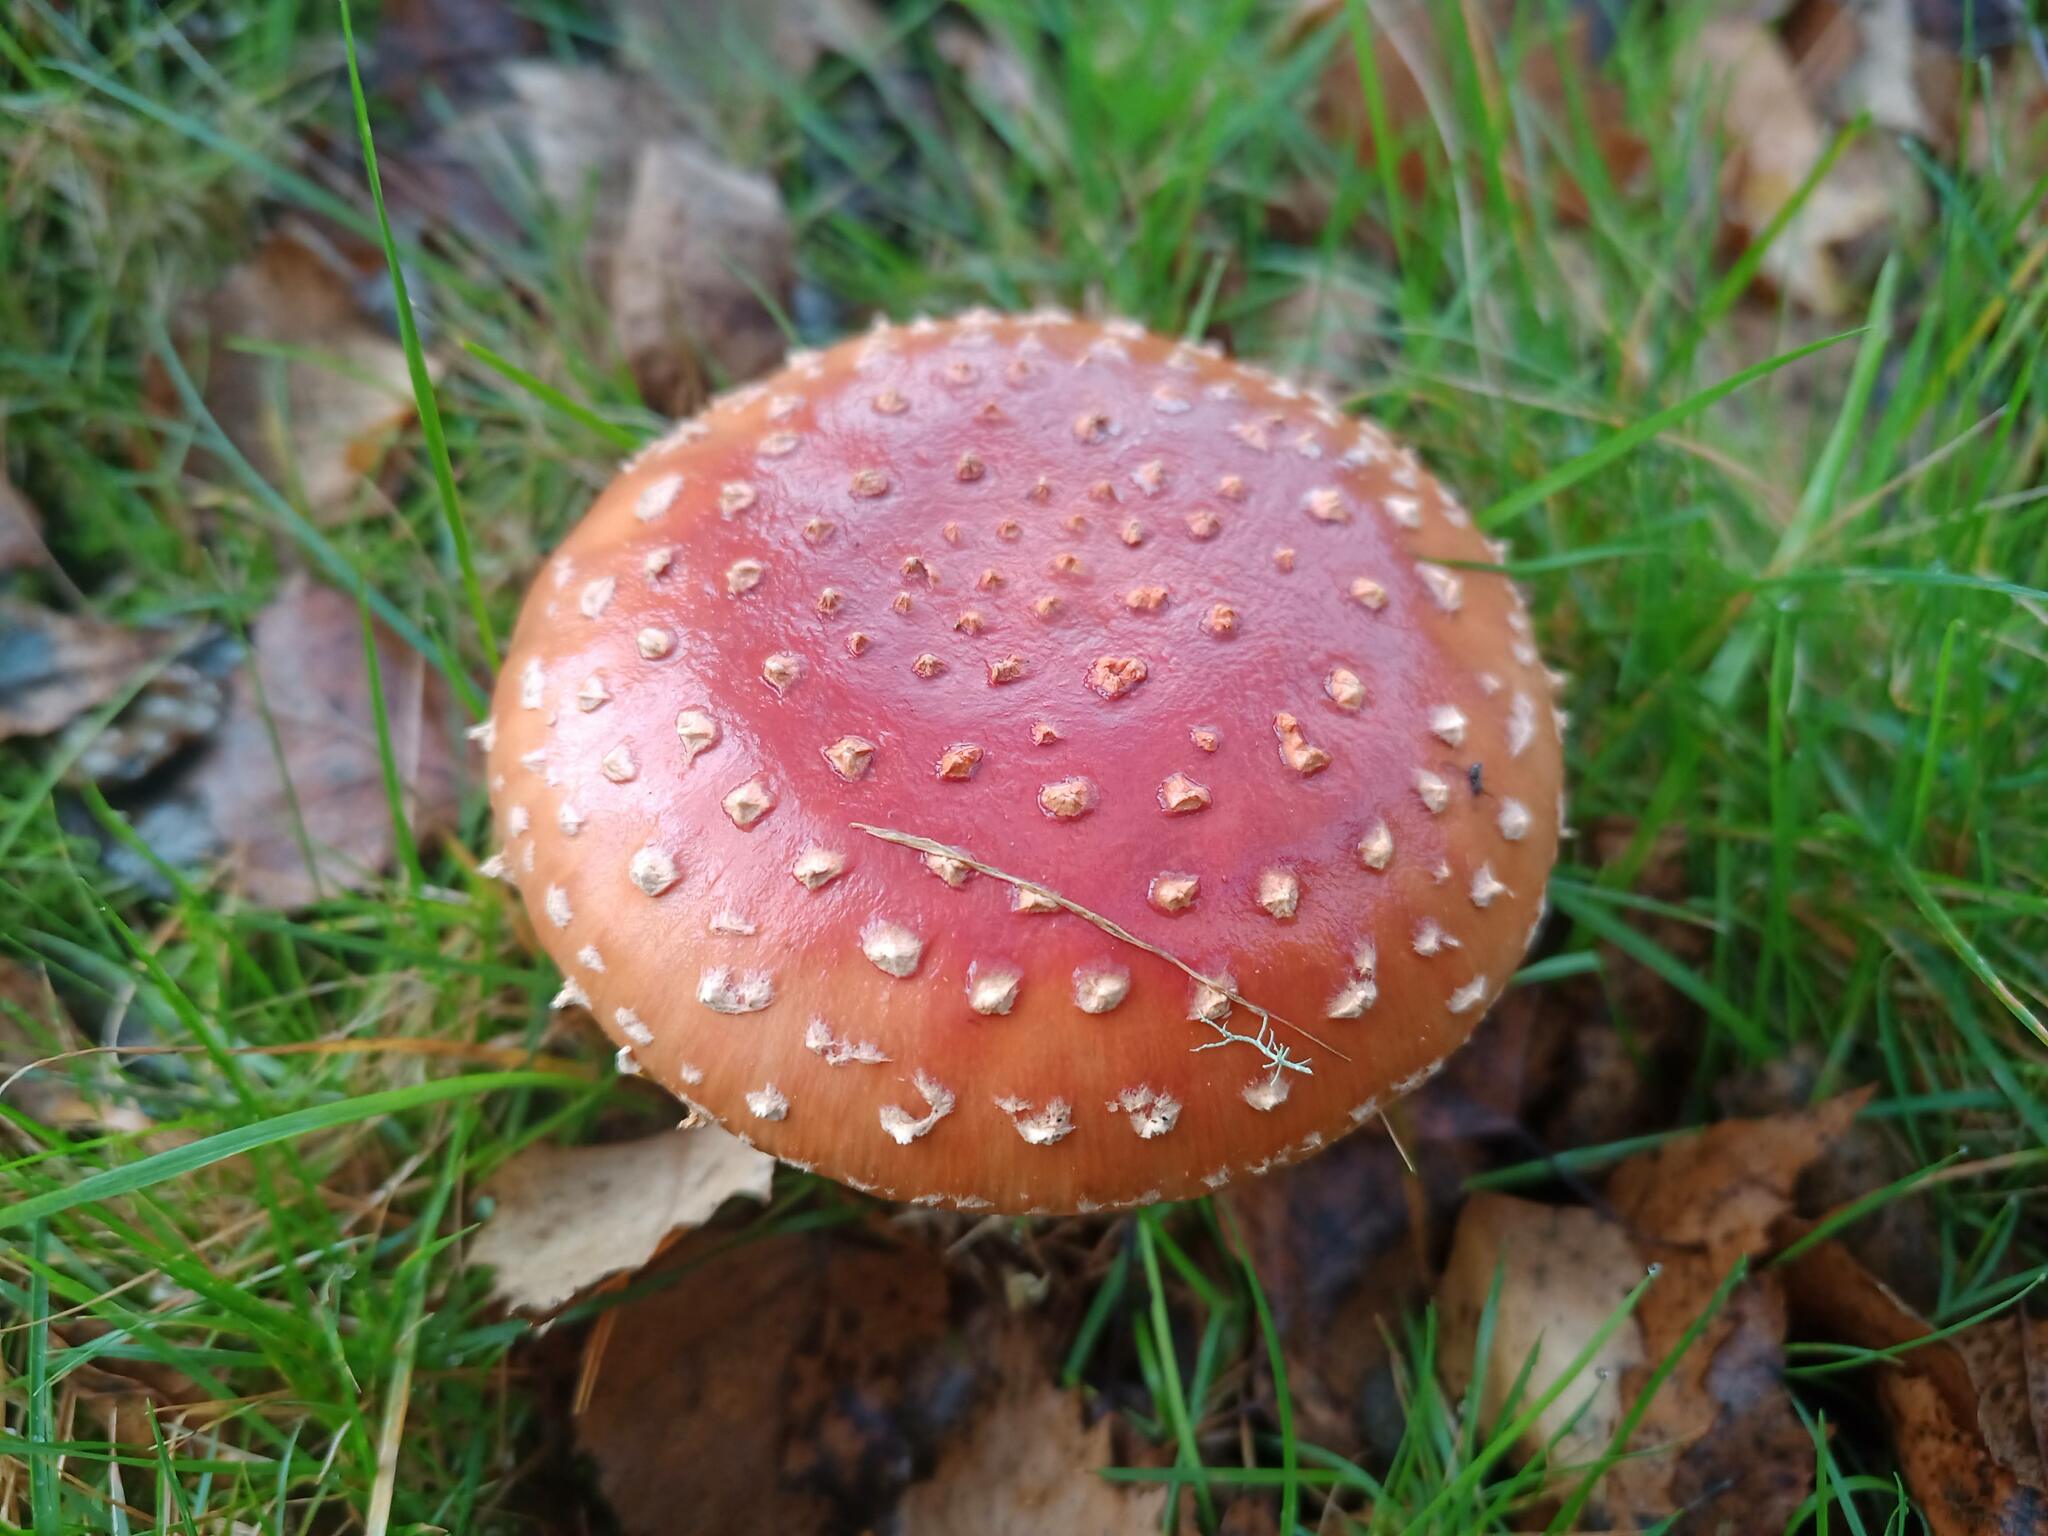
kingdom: Fungi
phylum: Basidiomycota
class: Agaricomycetes
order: Agaricales
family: Amanitaceae
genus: Amanita
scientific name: Amanita muscaria
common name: Fly agaric
